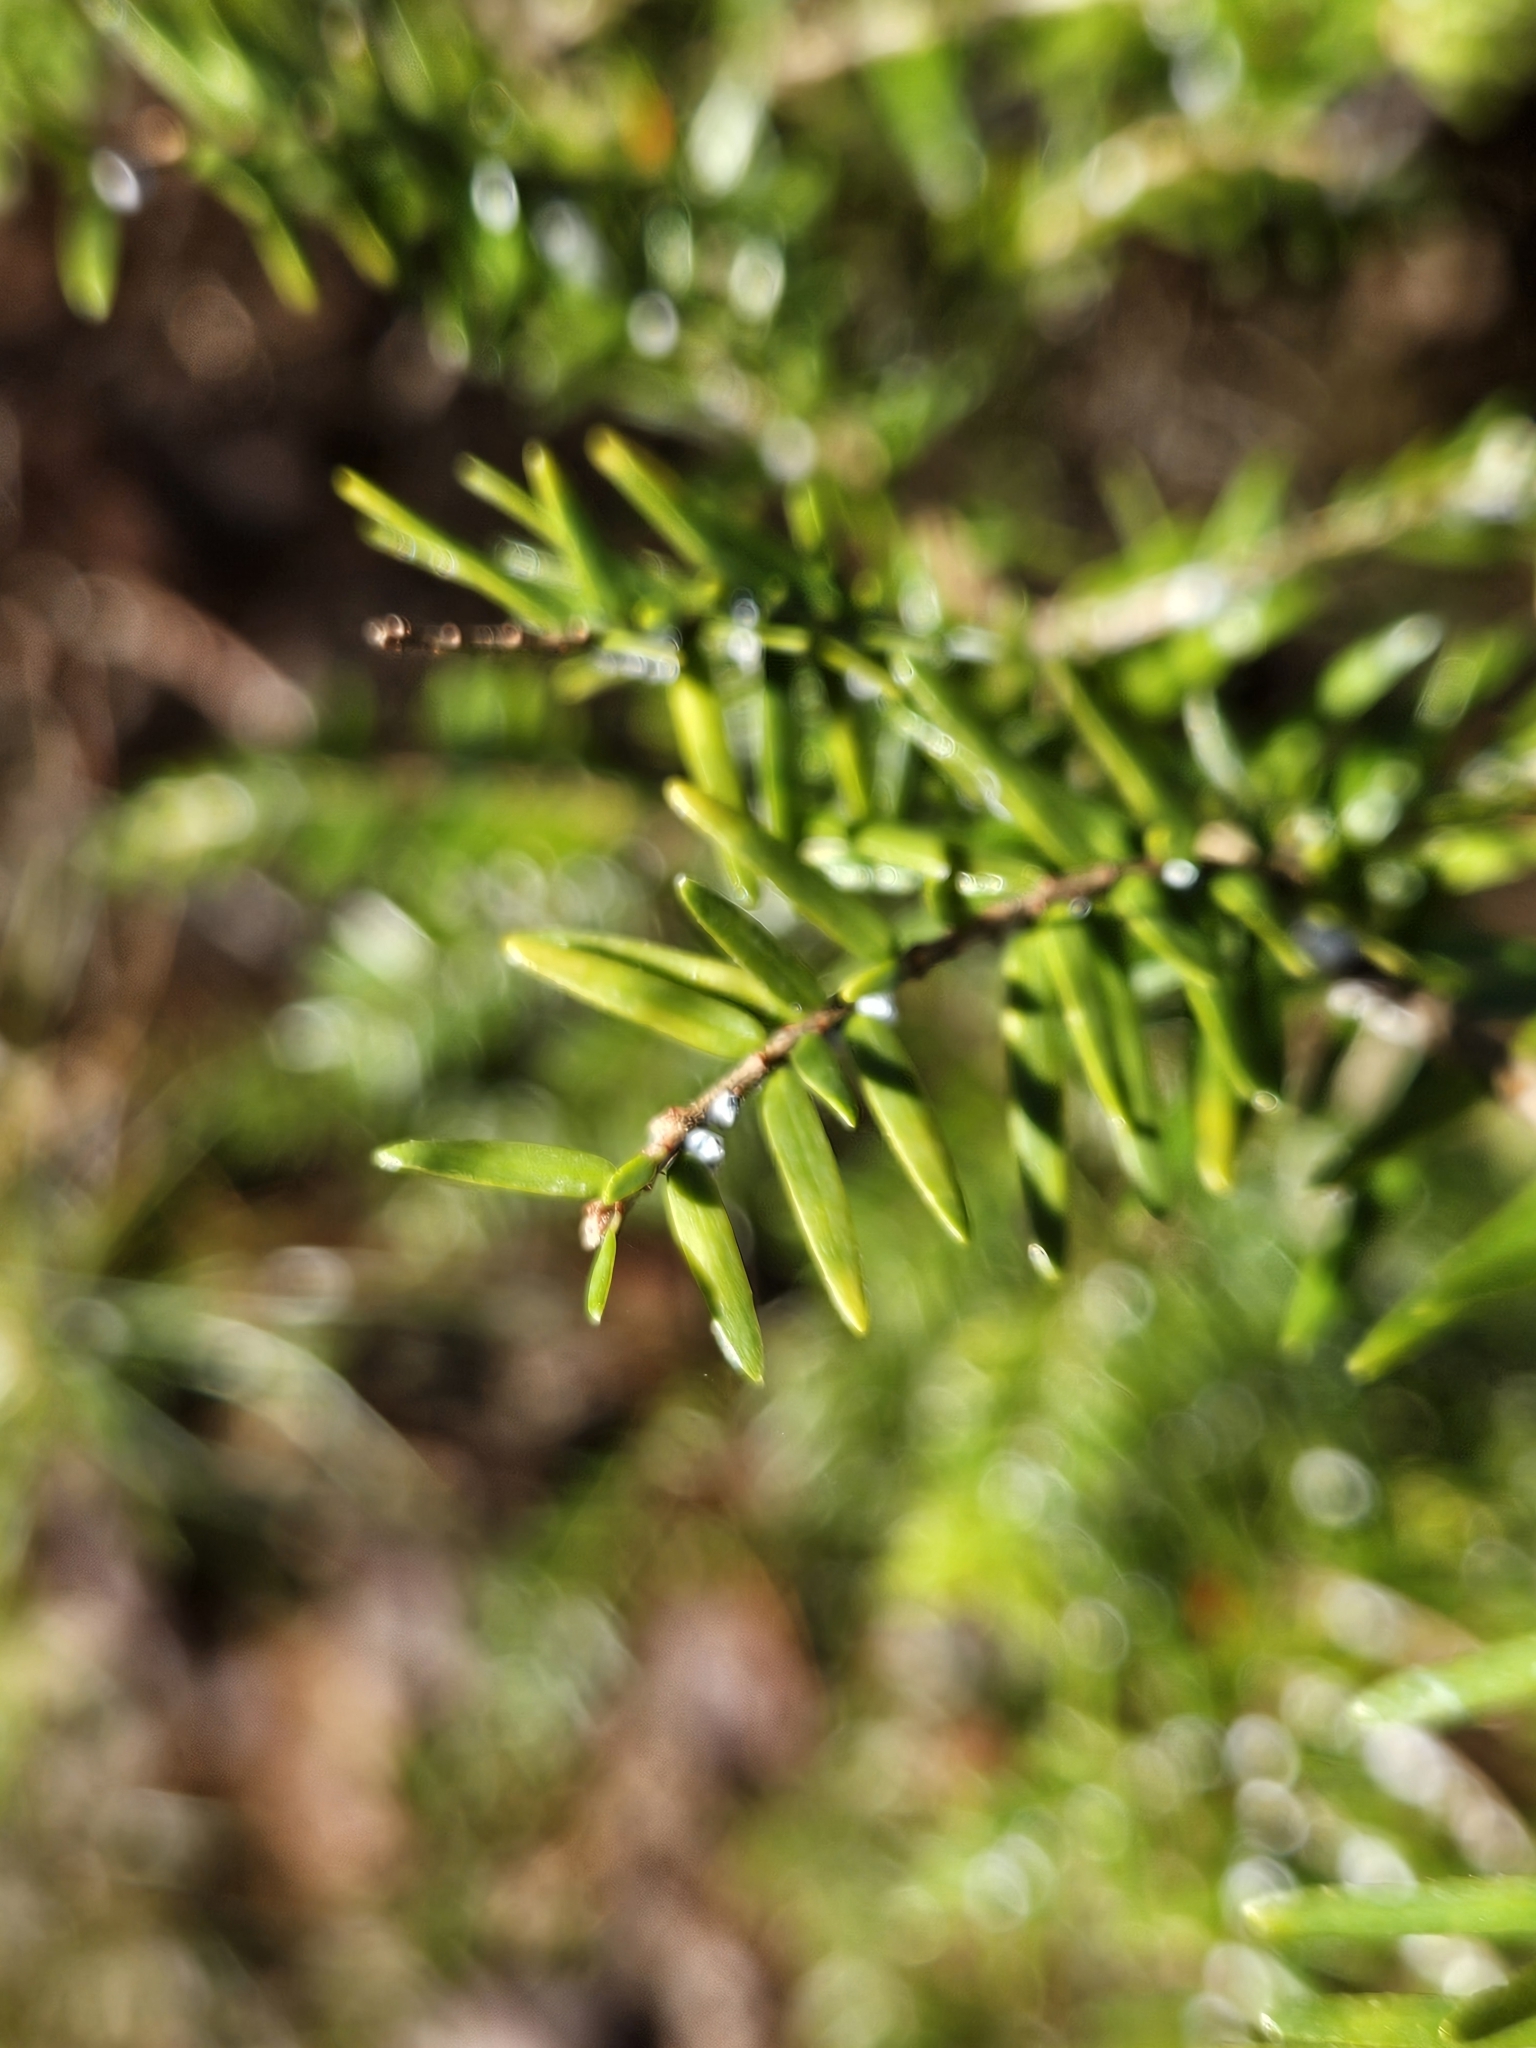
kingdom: Animalia
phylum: Arthropoda
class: Insecta
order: Hemiptera
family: Adelgidae
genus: Adelges
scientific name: Adelges tsugae
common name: Hemlock woolly adelgid
